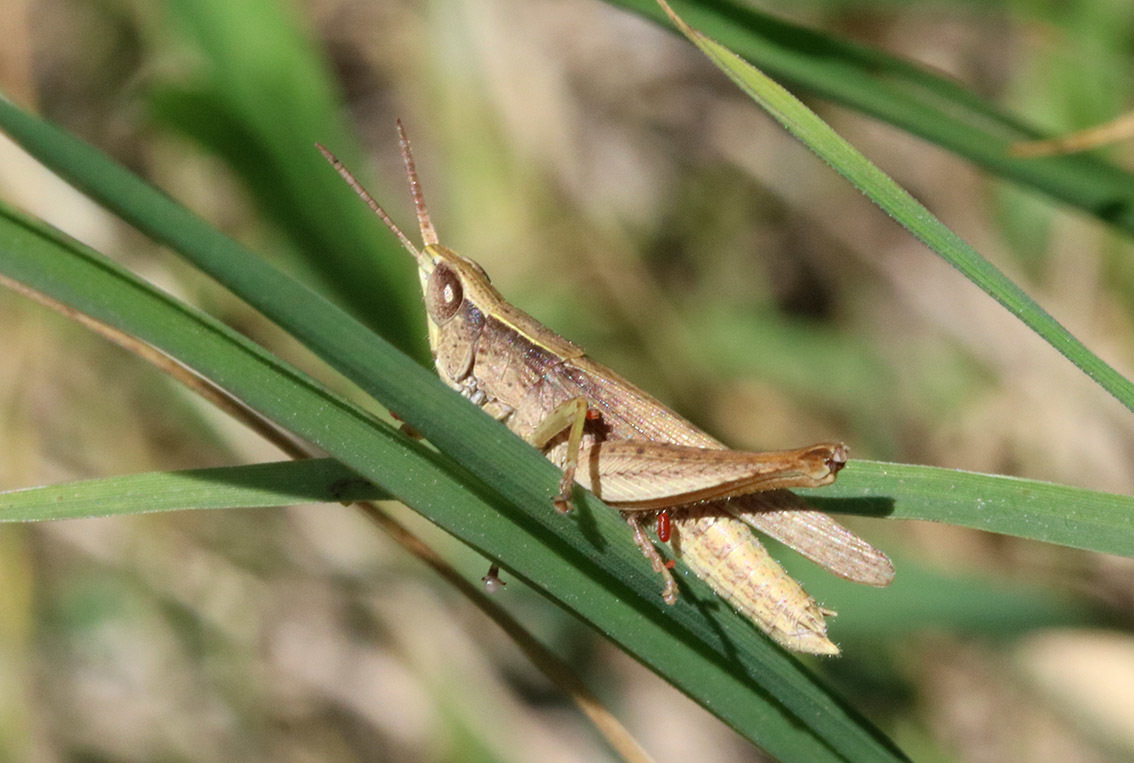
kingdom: Animalia
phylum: Arthropoda
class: Insecta
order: Orthoptera
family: Acrididae
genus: Laplatacris
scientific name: Laplatacris dispar
